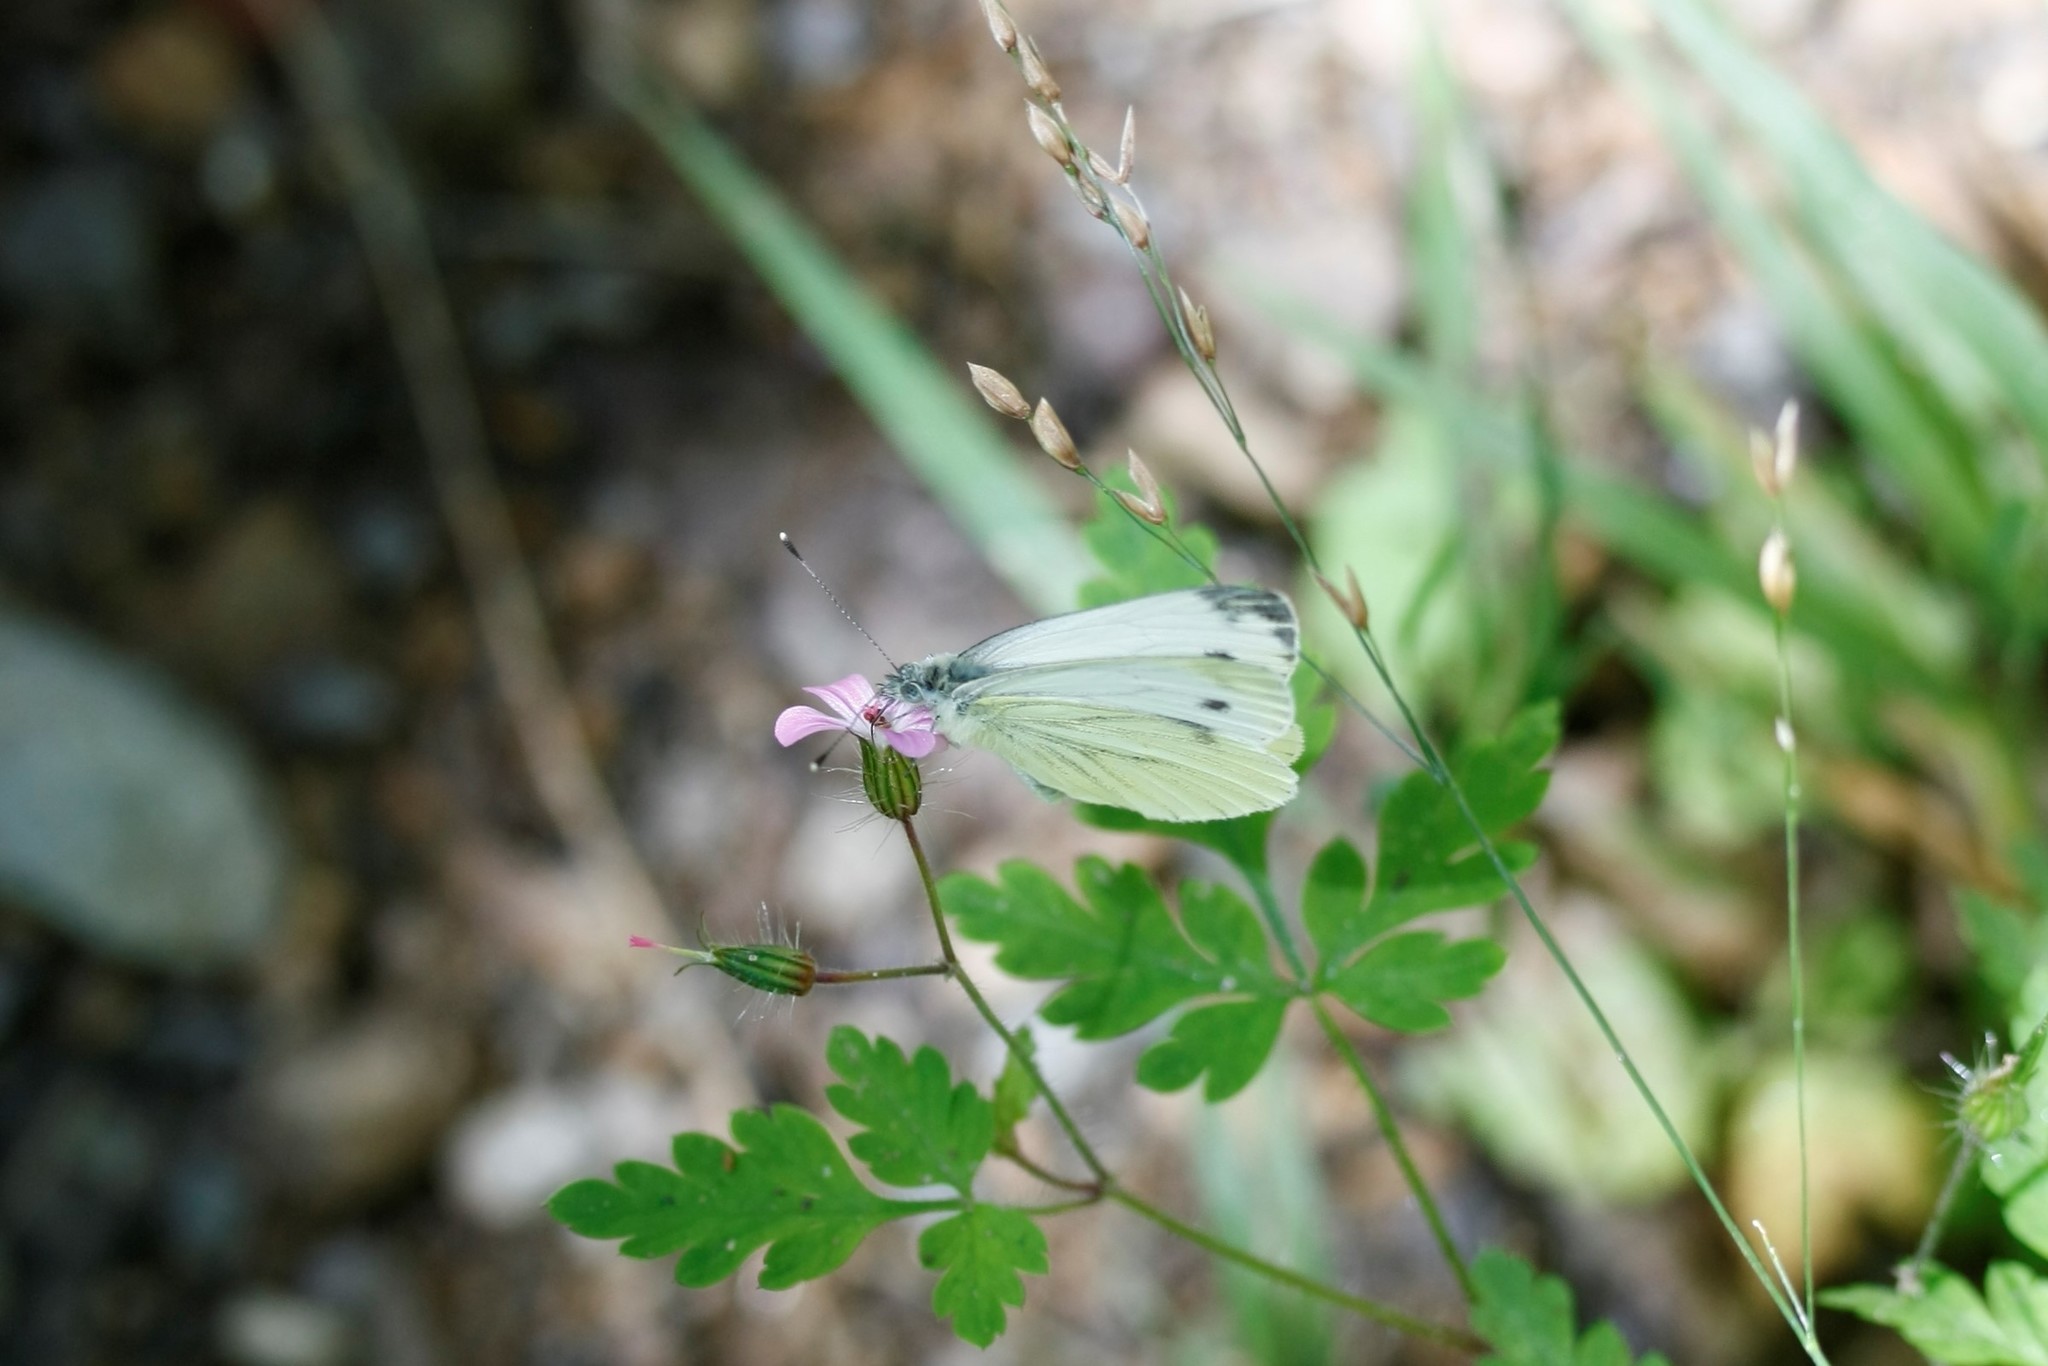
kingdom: Animalia
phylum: Arthropoda
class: Insecta
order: Lepidoptera
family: Pieridae
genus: Pieris
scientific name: Pieris napi
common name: Green-veined white
